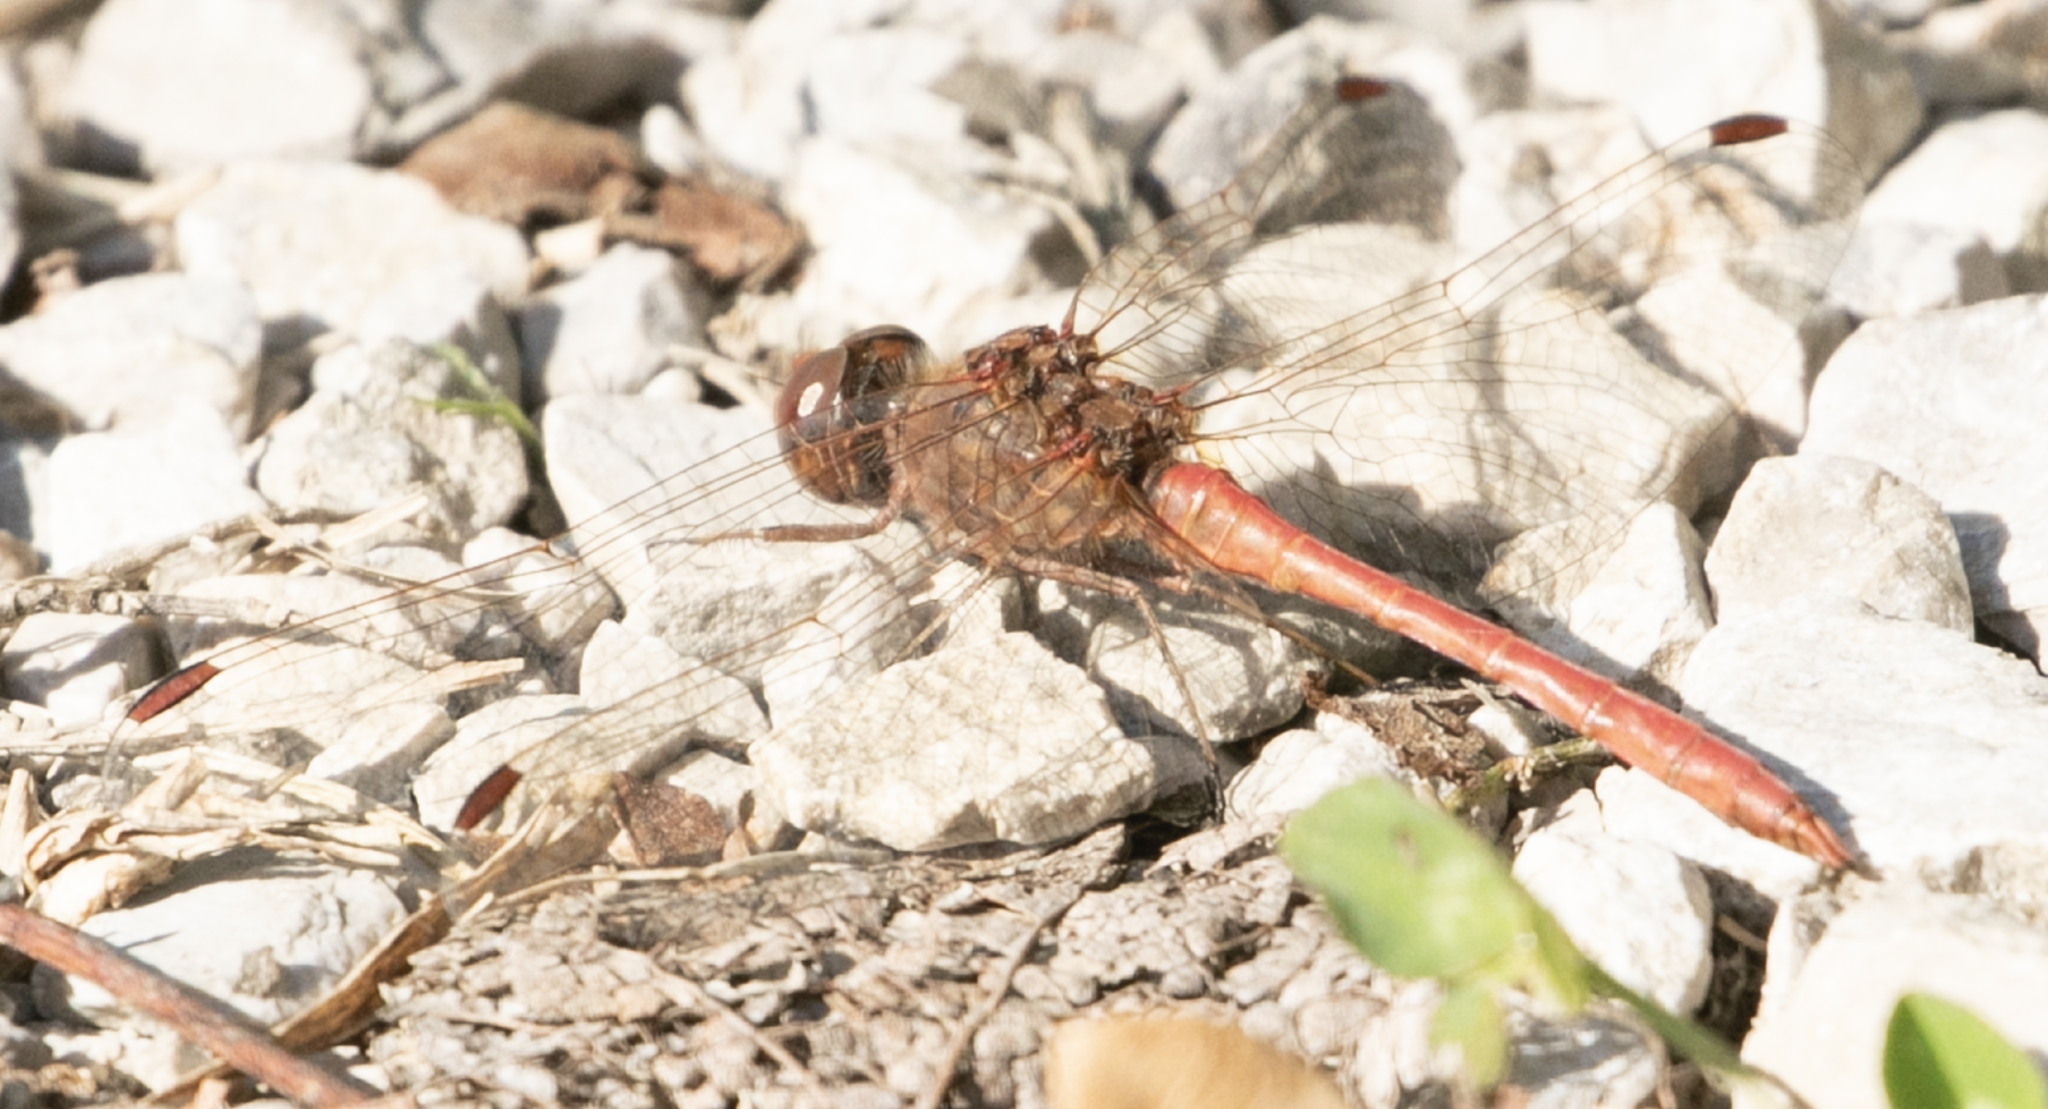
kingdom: Animalia
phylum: Arthropoda
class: Insecta
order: Odonata
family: Libellulidae
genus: Sympetrum
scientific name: Sympetrum meridionale
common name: Southern darter
